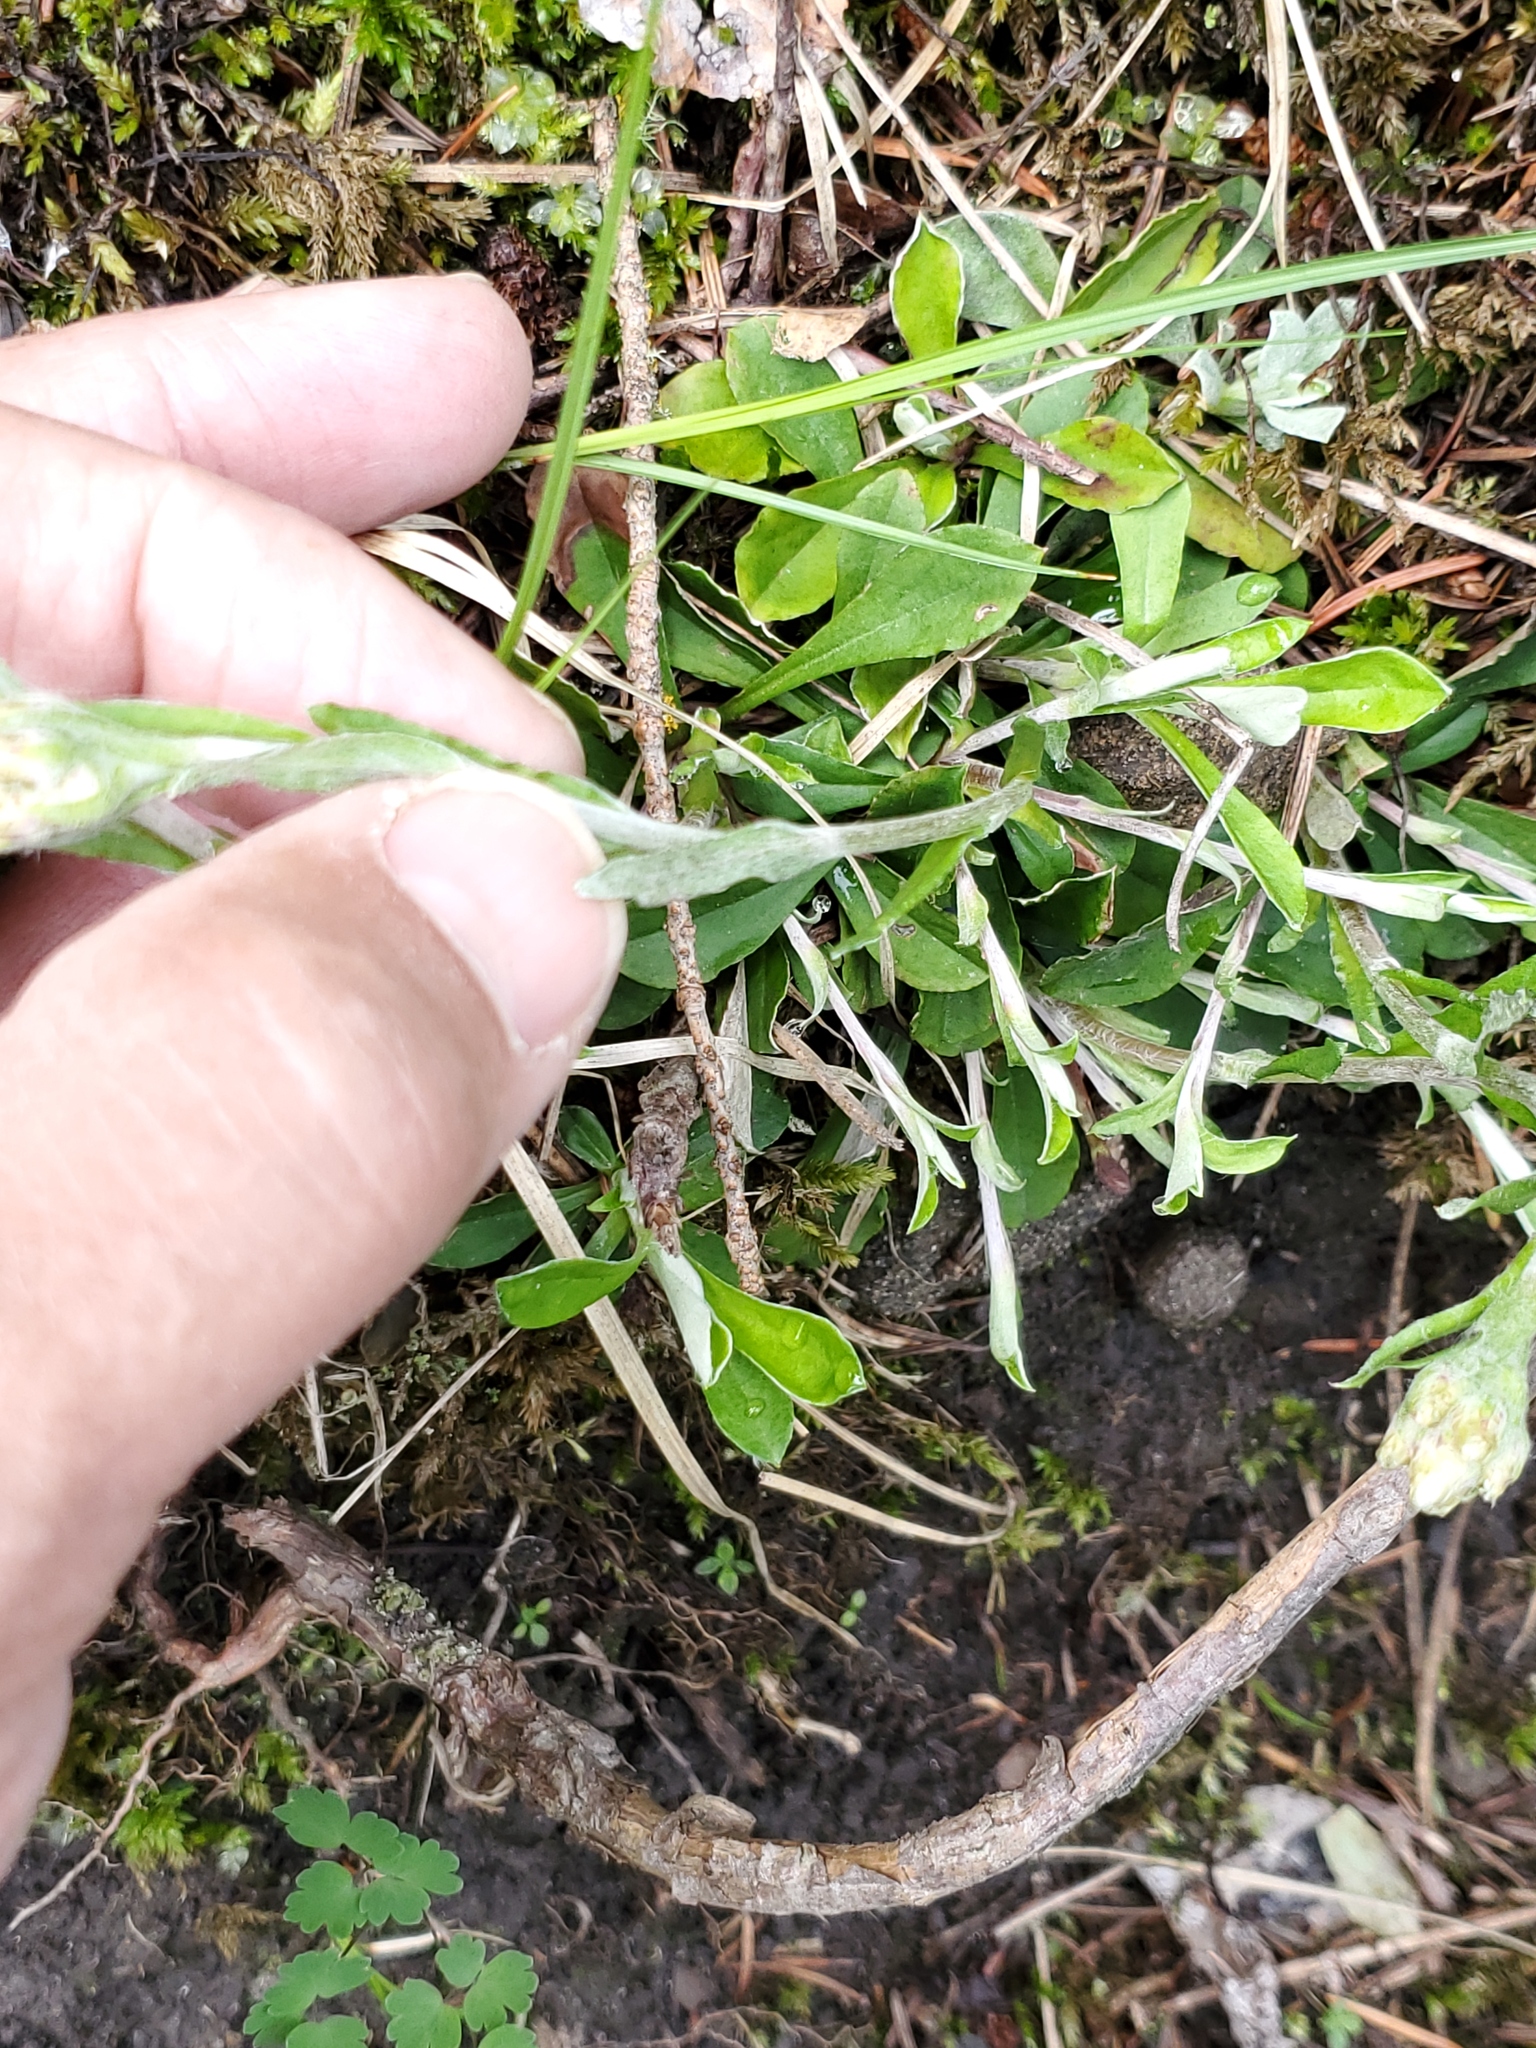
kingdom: Plantae
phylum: Tracheophyta
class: Magnoliopsida
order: Asterales
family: Asteraceae
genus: Antennaria
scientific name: Antennaria howellii
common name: Howell's pussytoes
